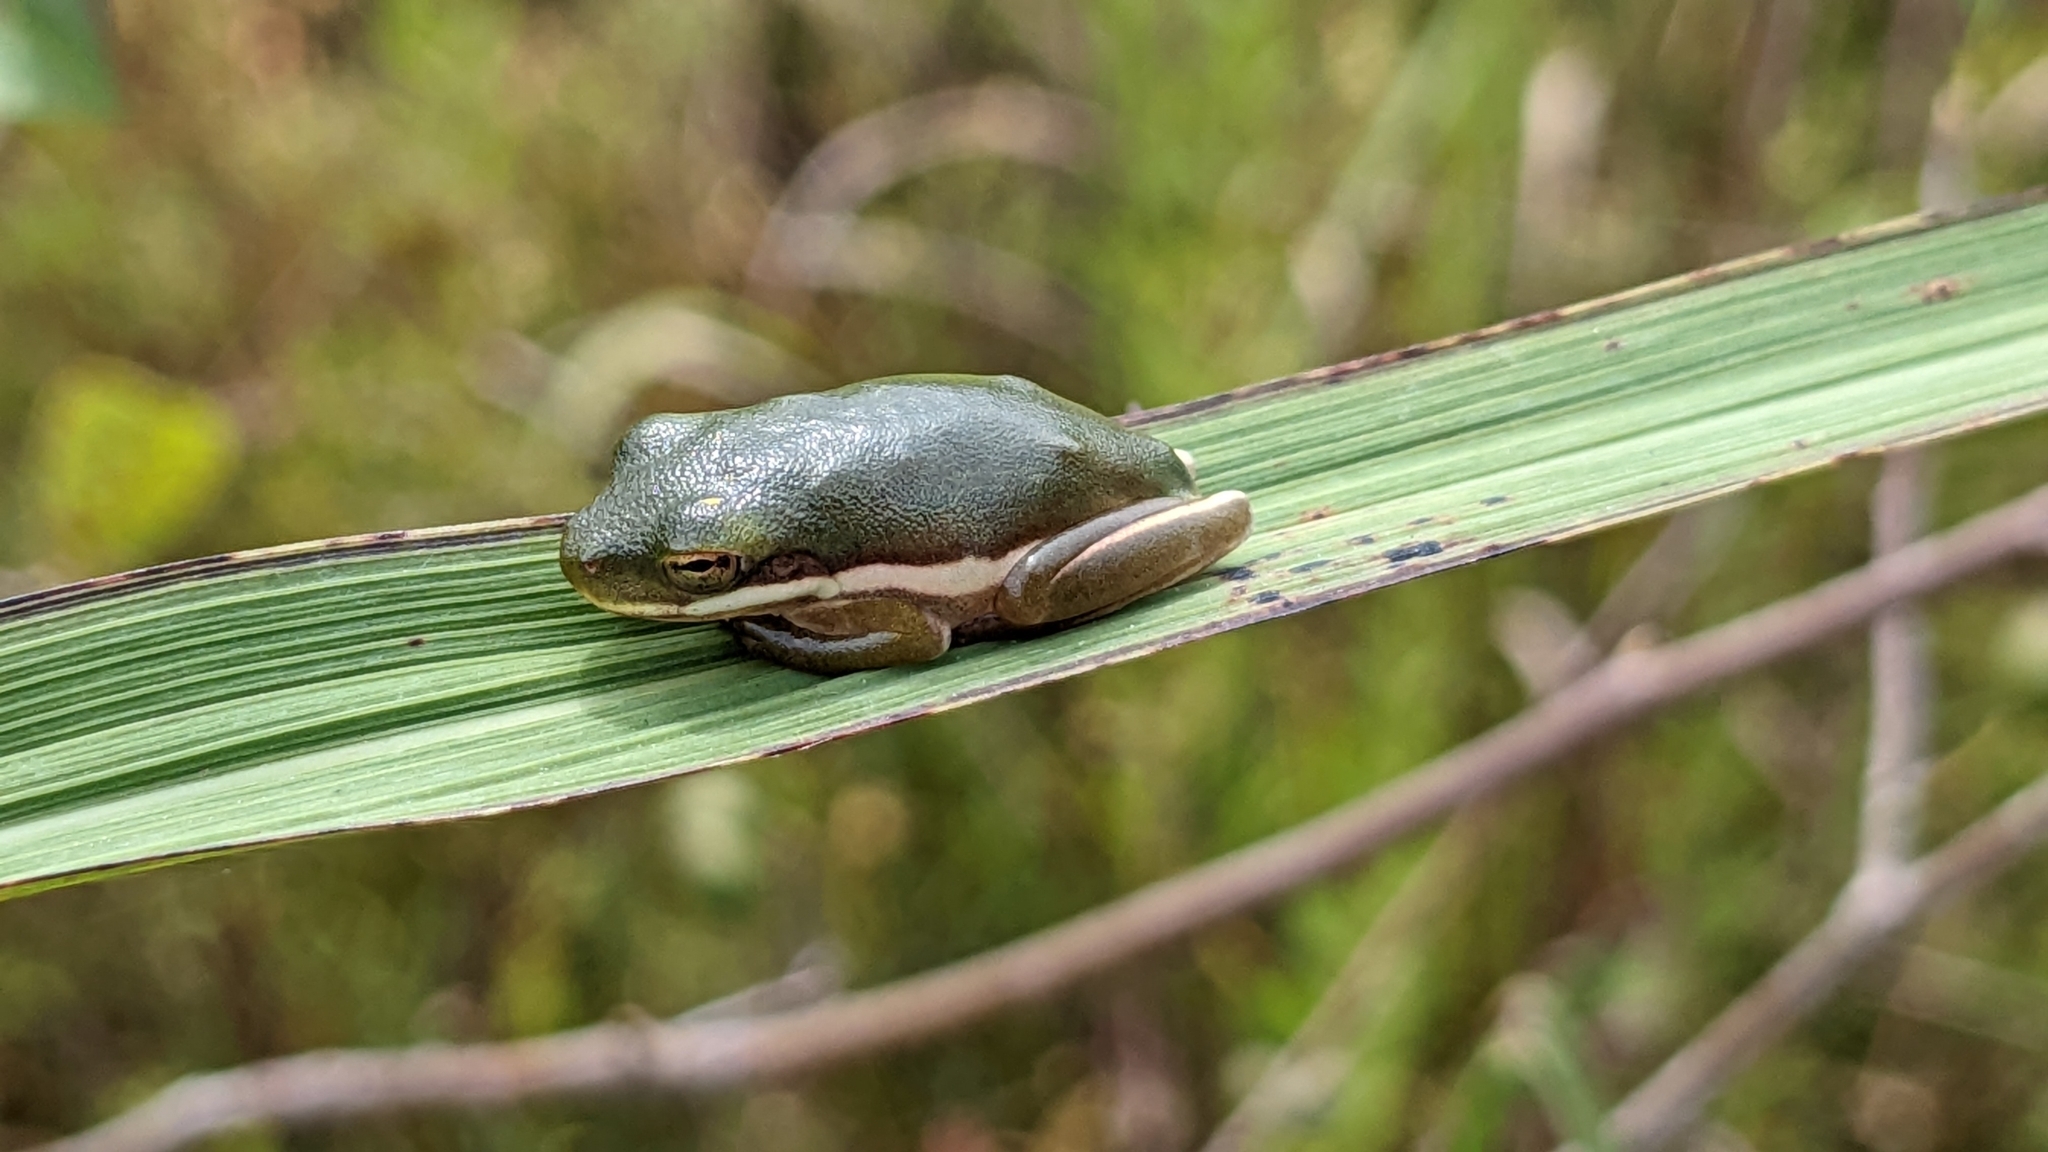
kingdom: Animalia
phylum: Chordata
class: Amphibia
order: Anura
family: Hylidae
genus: Dryophytes
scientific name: Dryophytes cinereus
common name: Green treefrog
